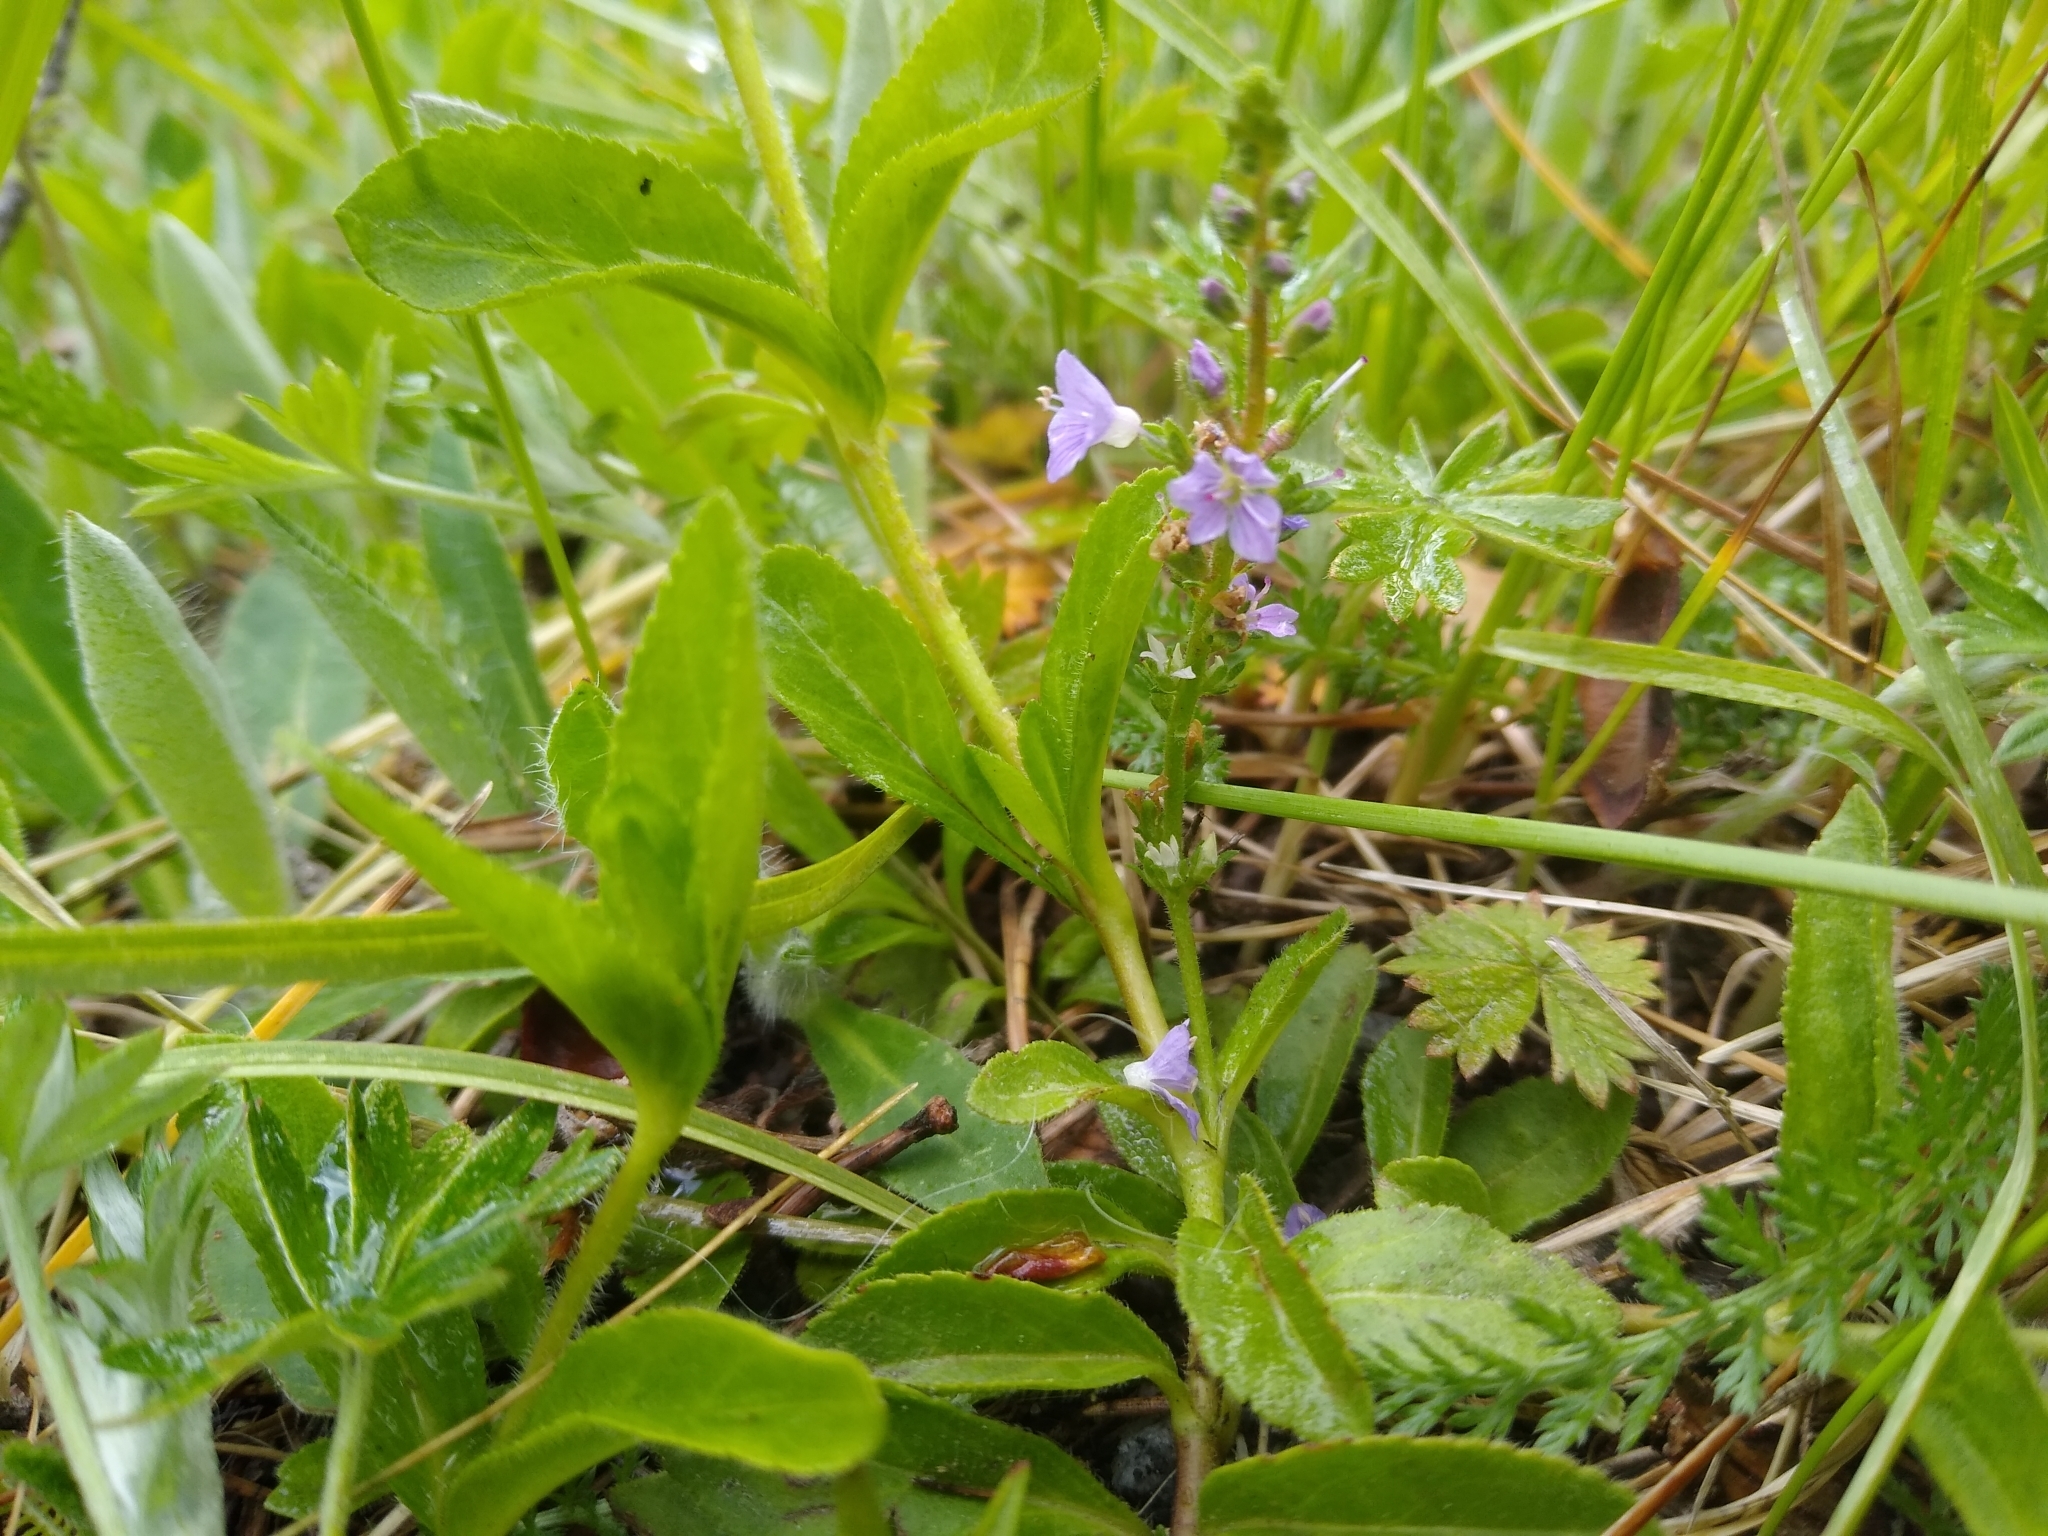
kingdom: Plantae
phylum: Tracheophyta
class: Magnoliopsida
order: Lamiales
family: Plantaginaceae
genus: Veronica
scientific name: Veronica officinalis
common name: Common speedwell
